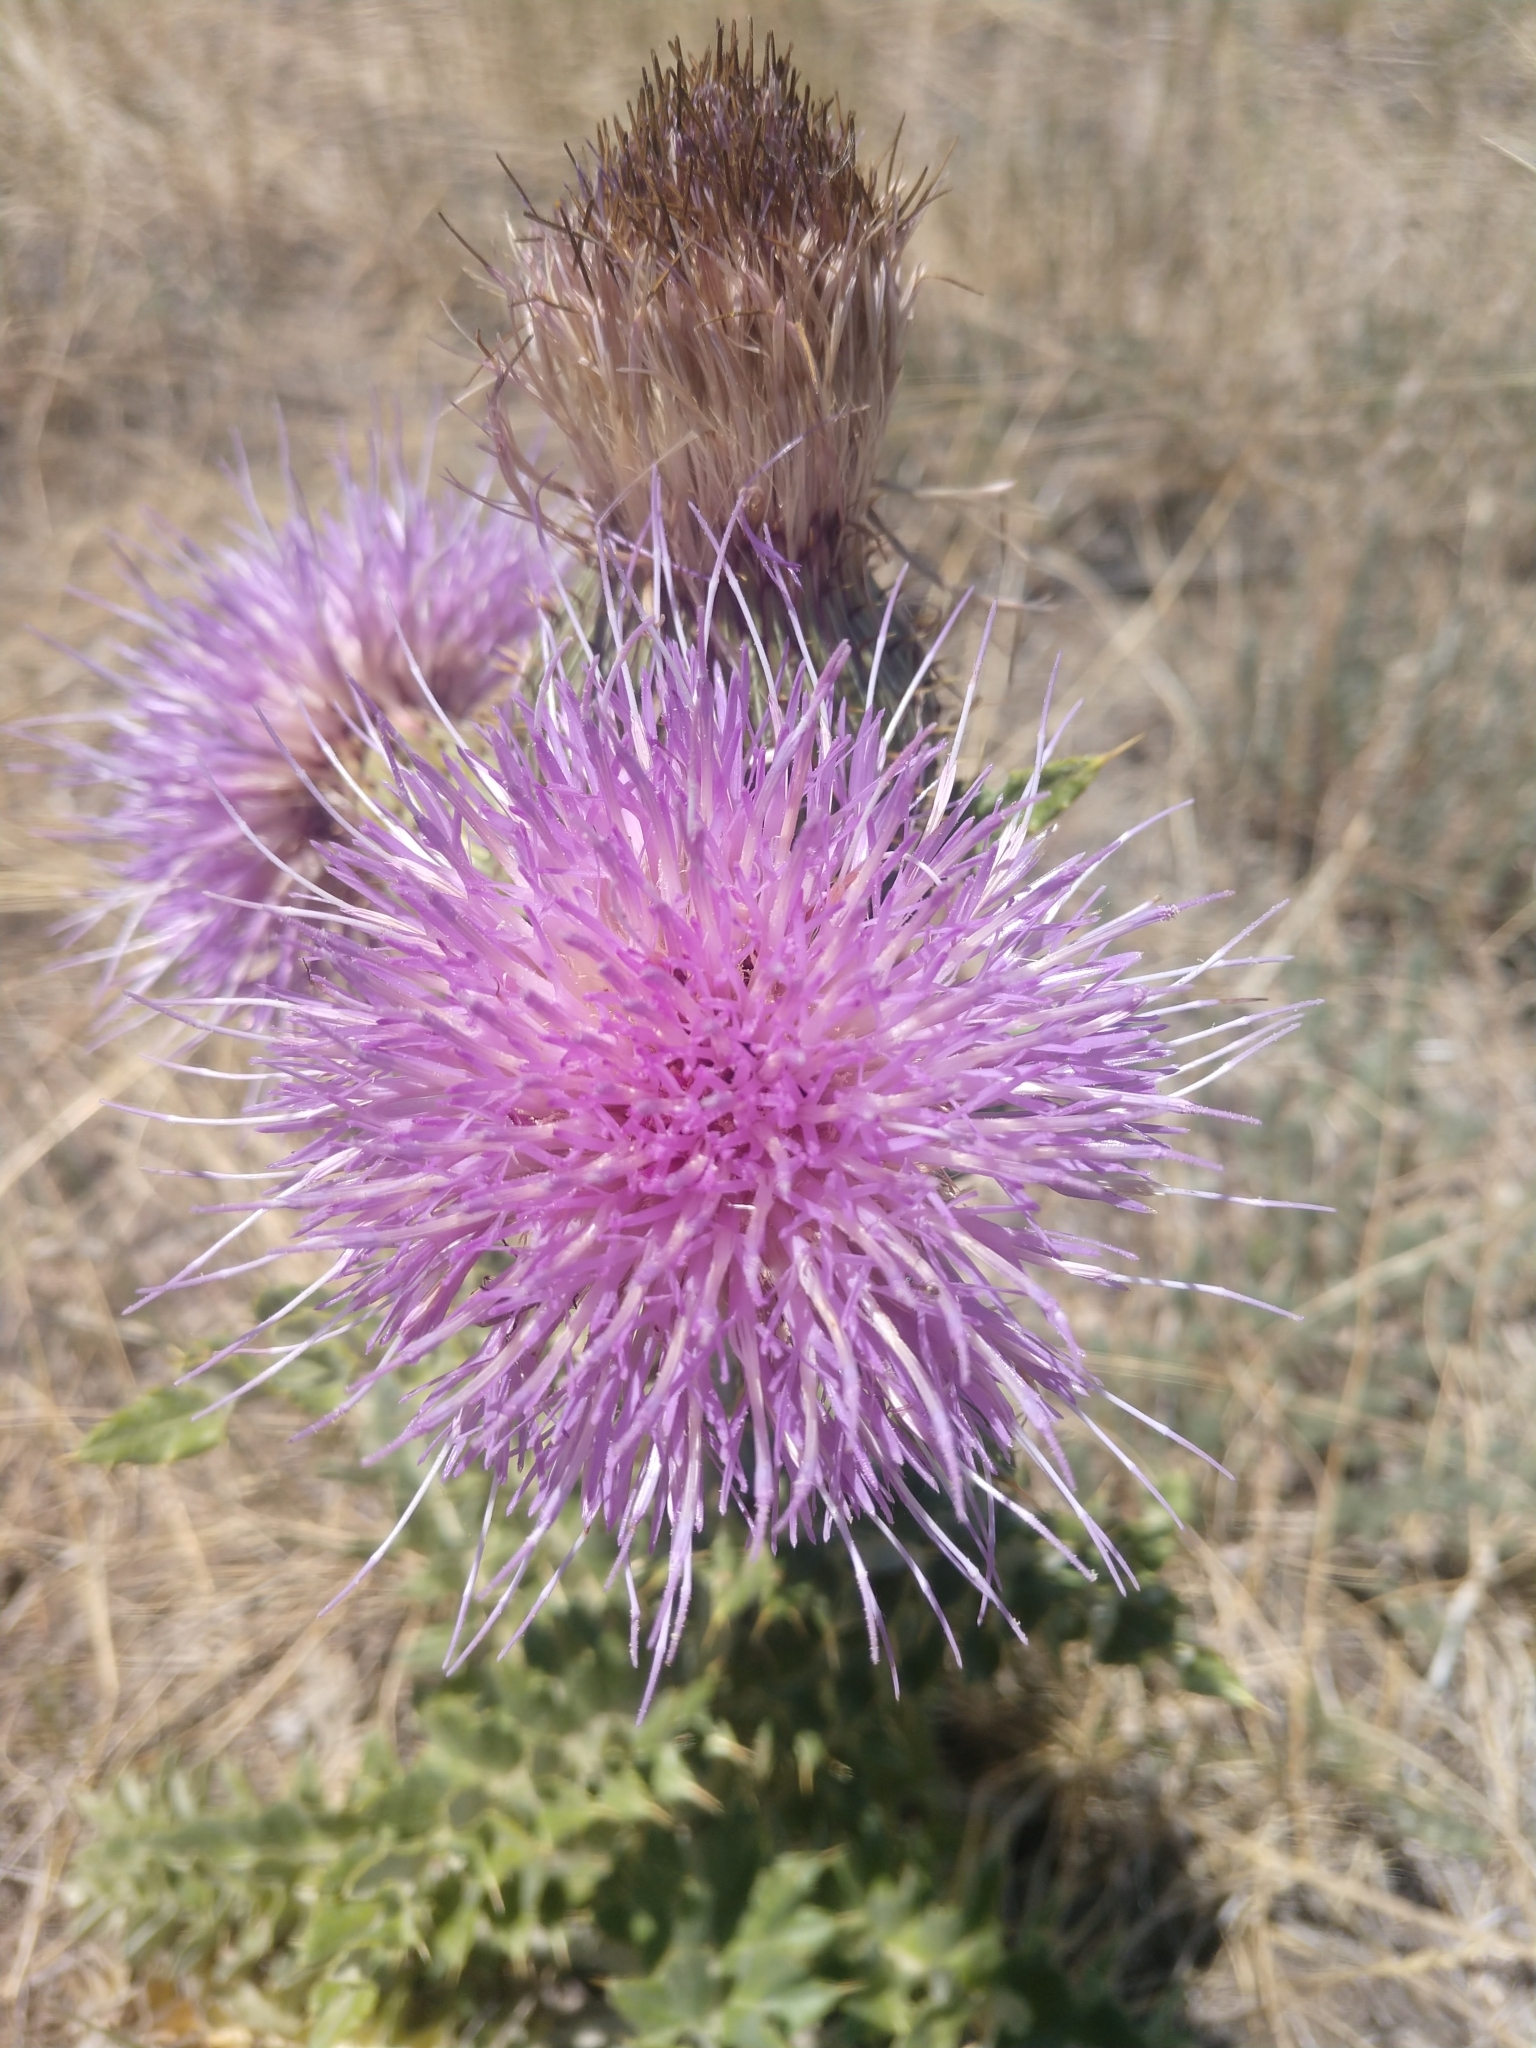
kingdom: Plantae
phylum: Tracheophyta
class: Magnoliopsida
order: Asterales
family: Asteraceae
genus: Cirsium
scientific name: Cirsium undulatum
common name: Pasture thistle
